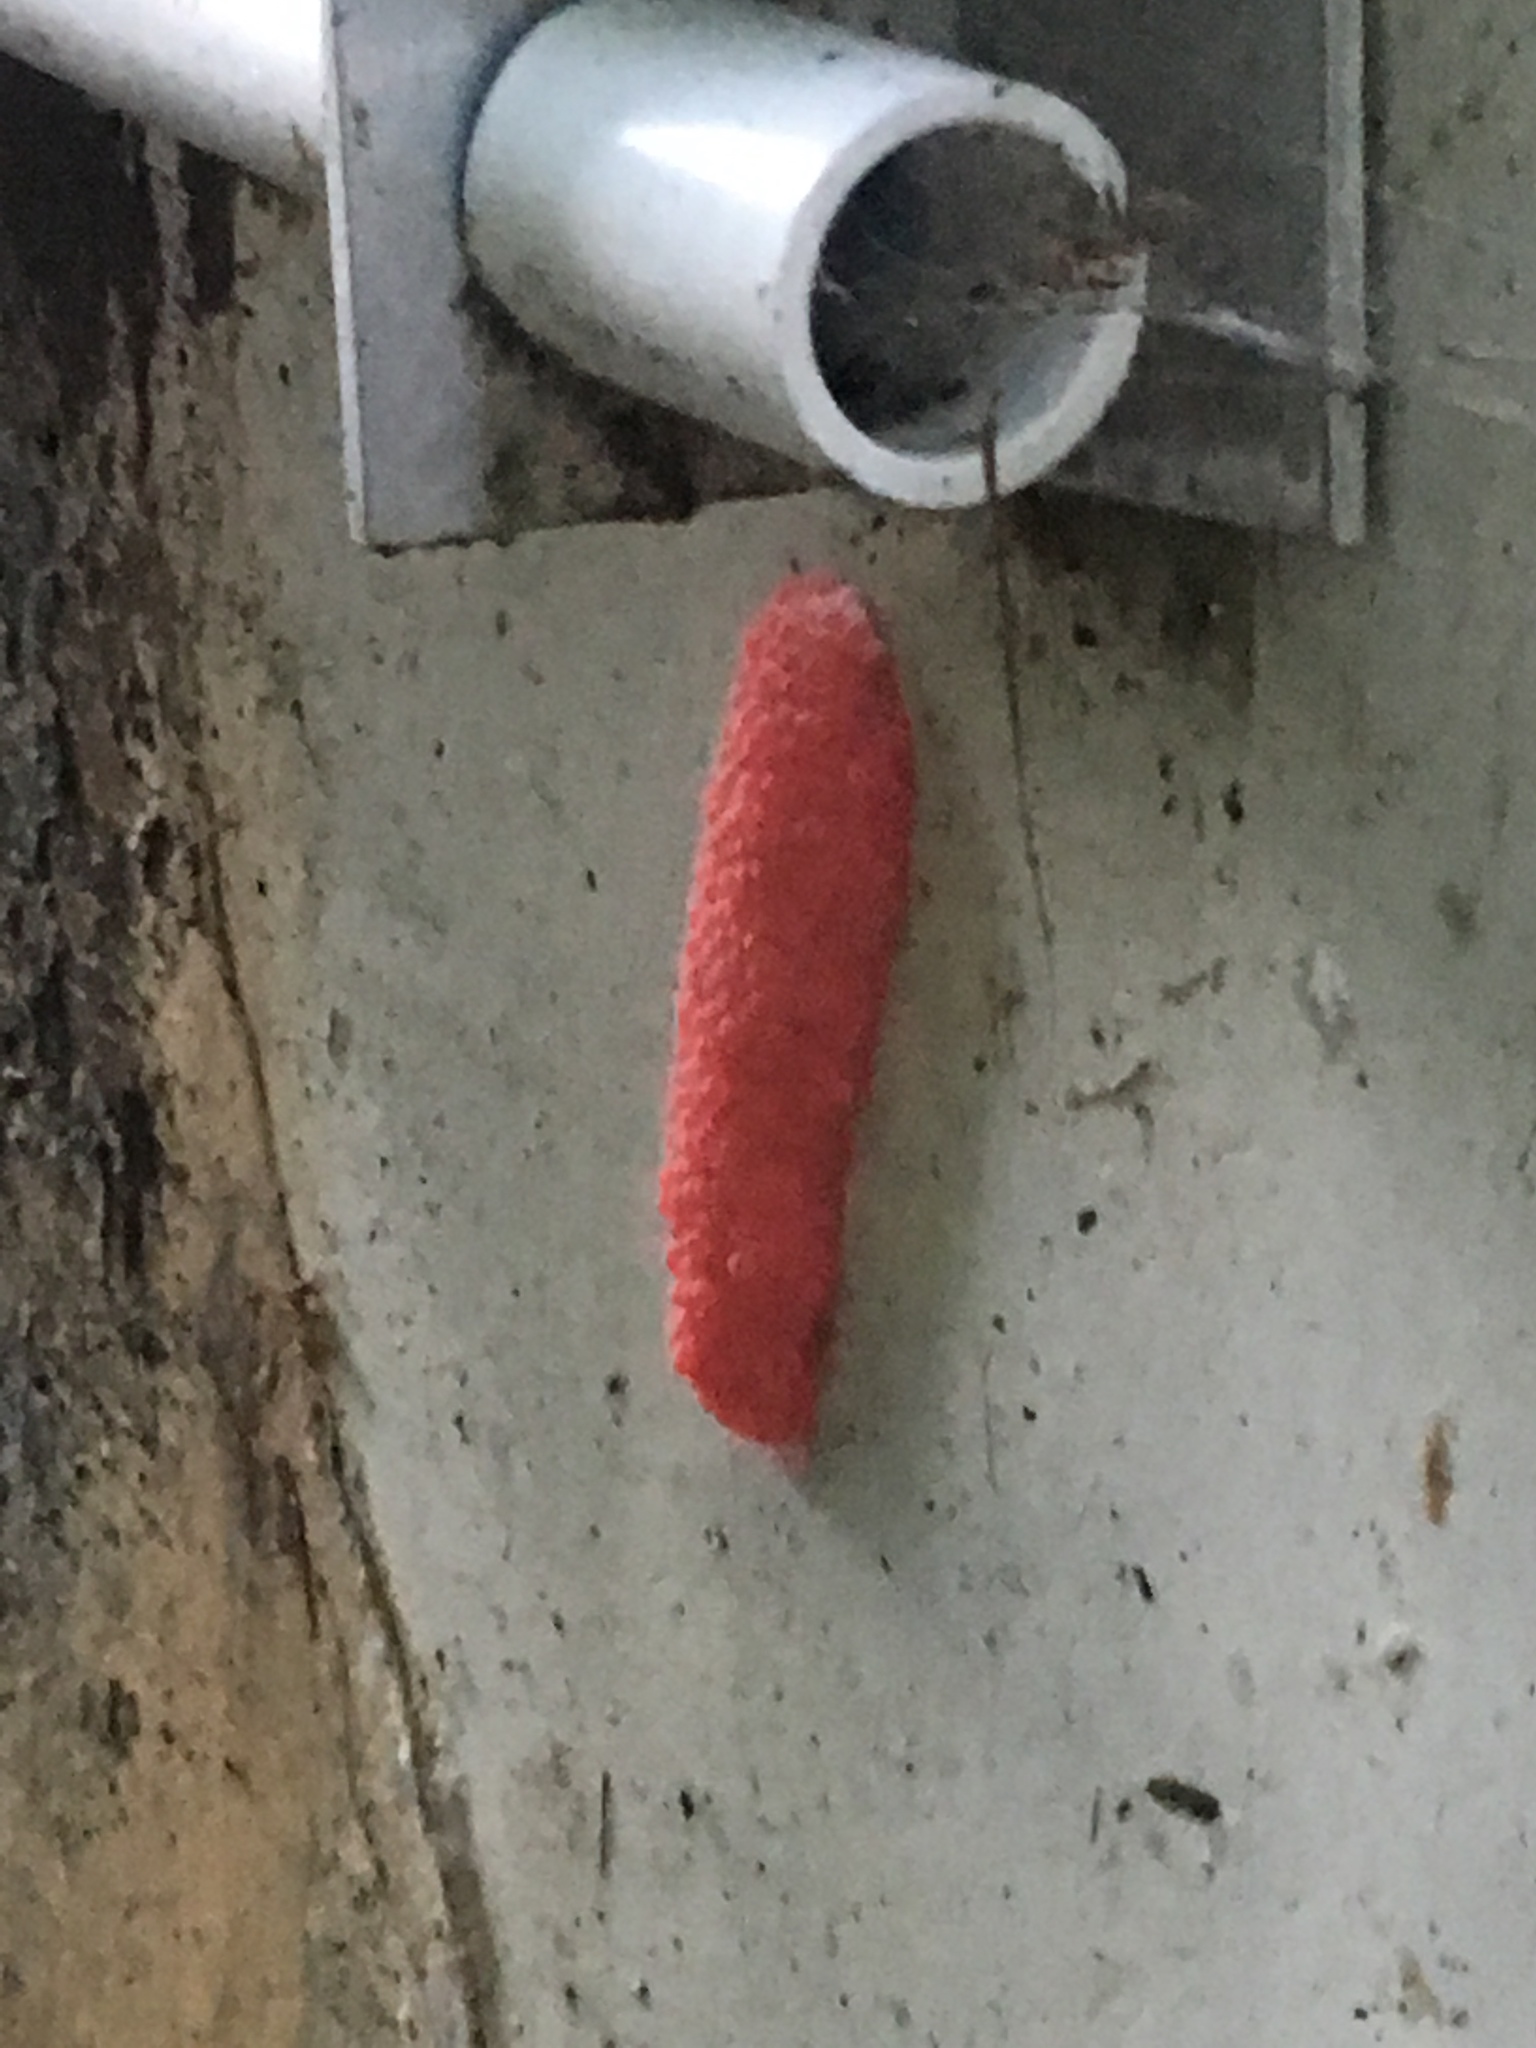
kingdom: Animalia
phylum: Mollusca
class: Gastropoda
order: Architaenioglossa
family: Ampullariidae
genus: Pomacea
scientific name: Pomacea maculata
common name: Giant applesnail
